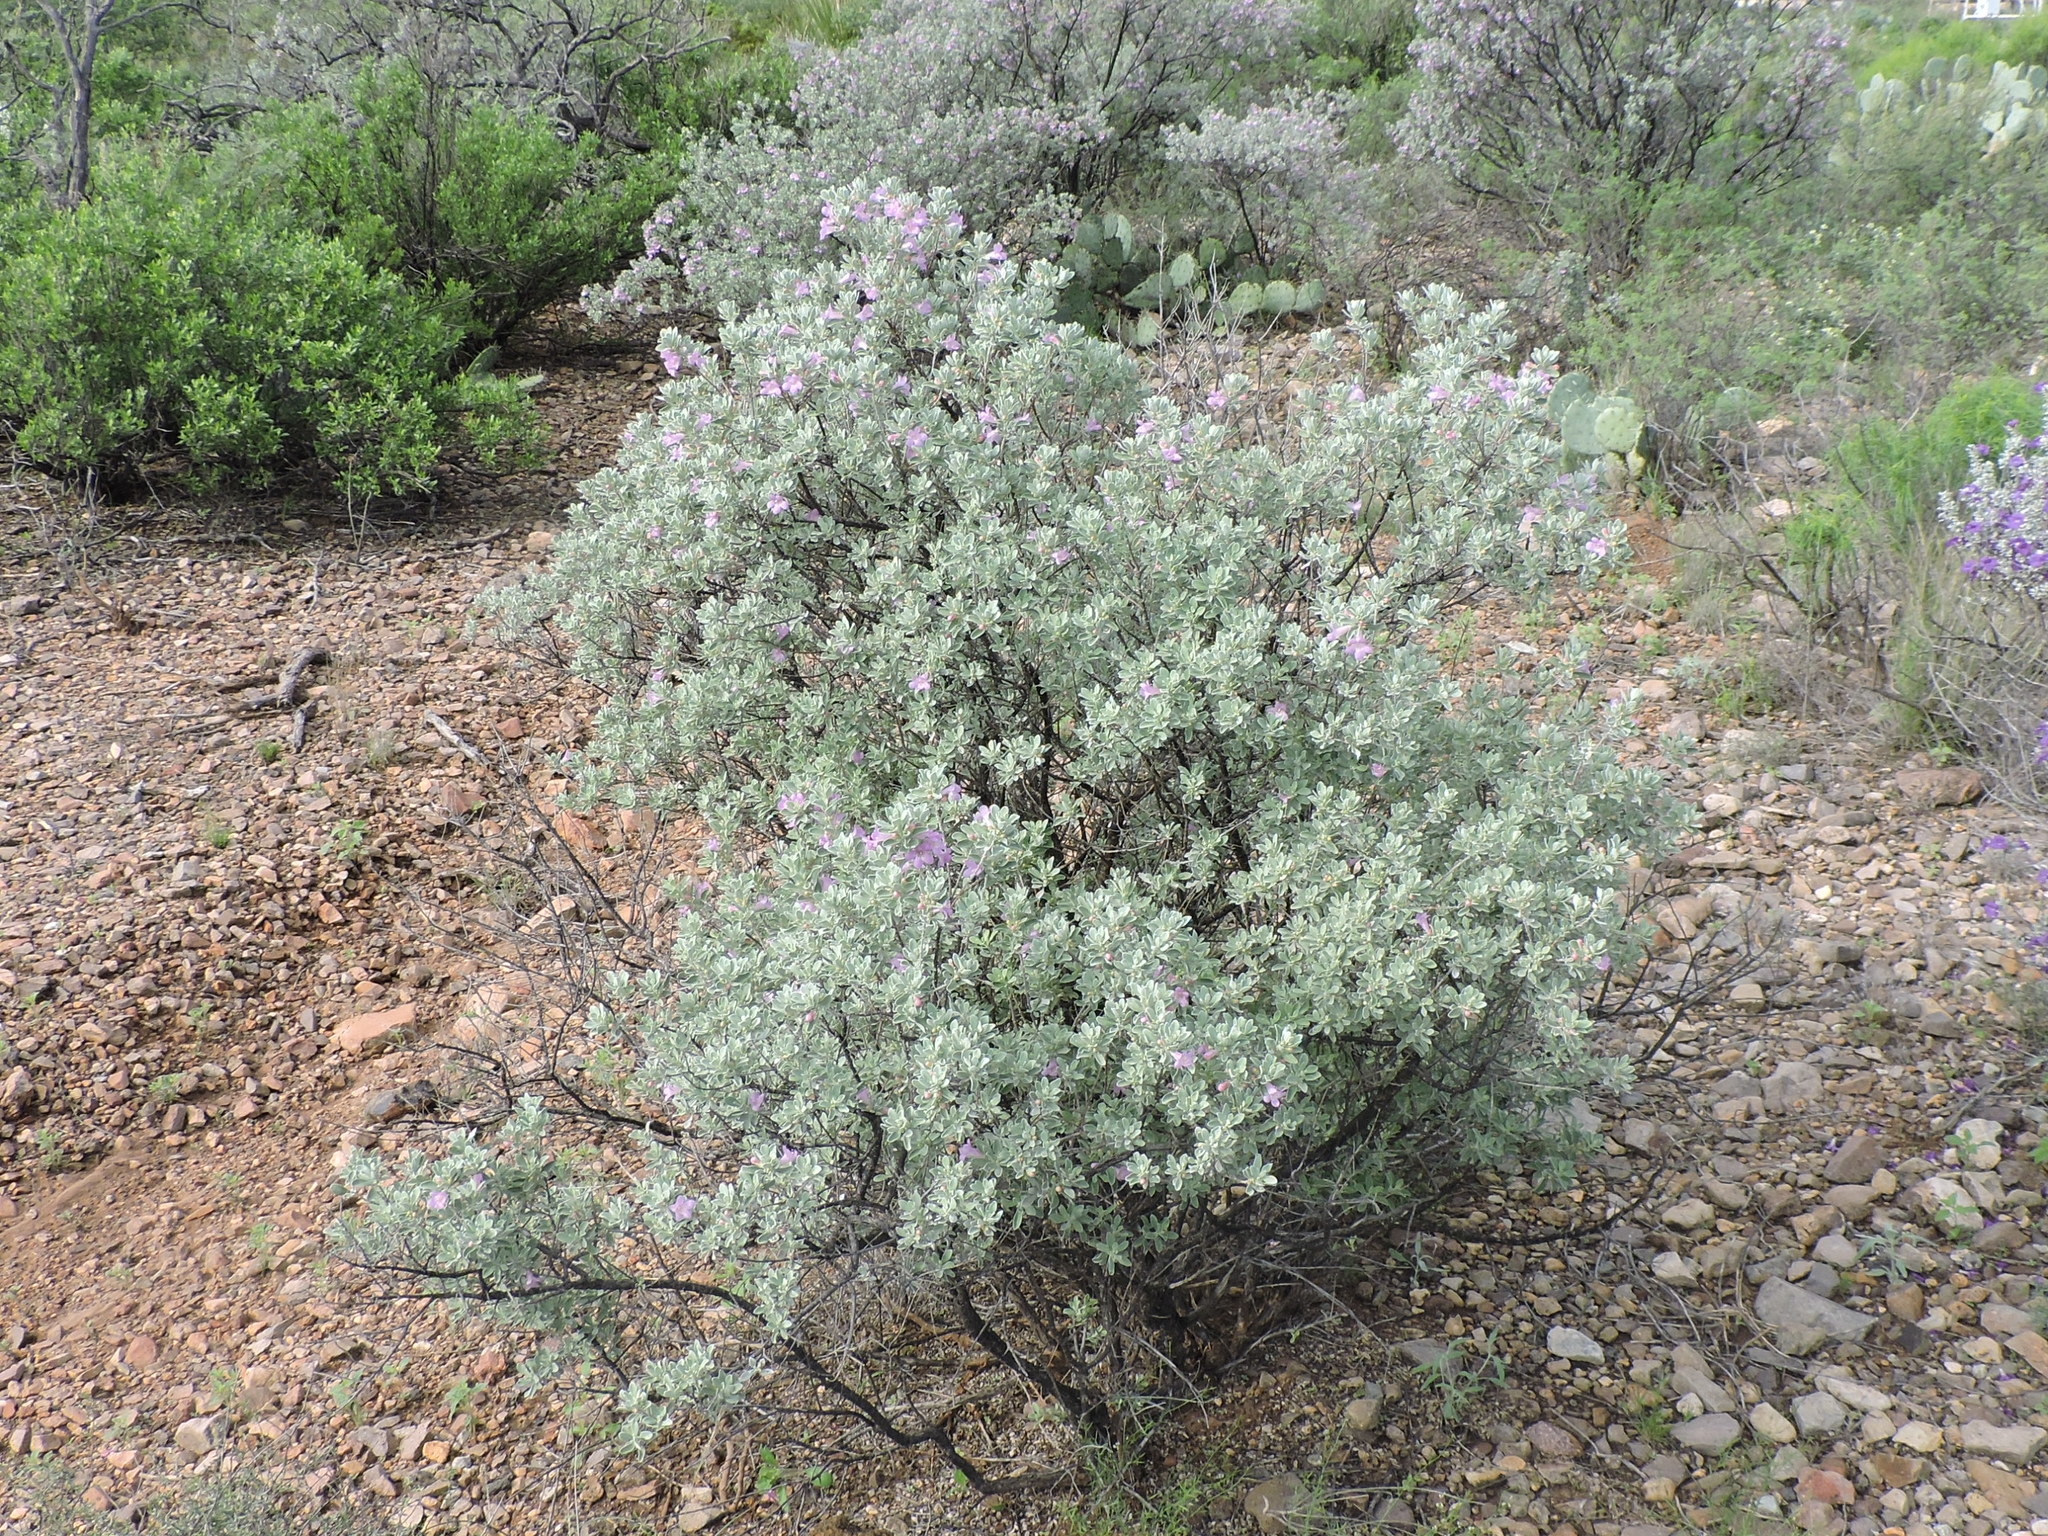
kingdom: Plantae
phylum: Tracheophyta
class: Magnoliopsida
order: Lamiales
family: Scrophulariaceae
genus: Leucophyllum
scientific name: Leucophyllum frutescens
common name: Texas silverleaf
